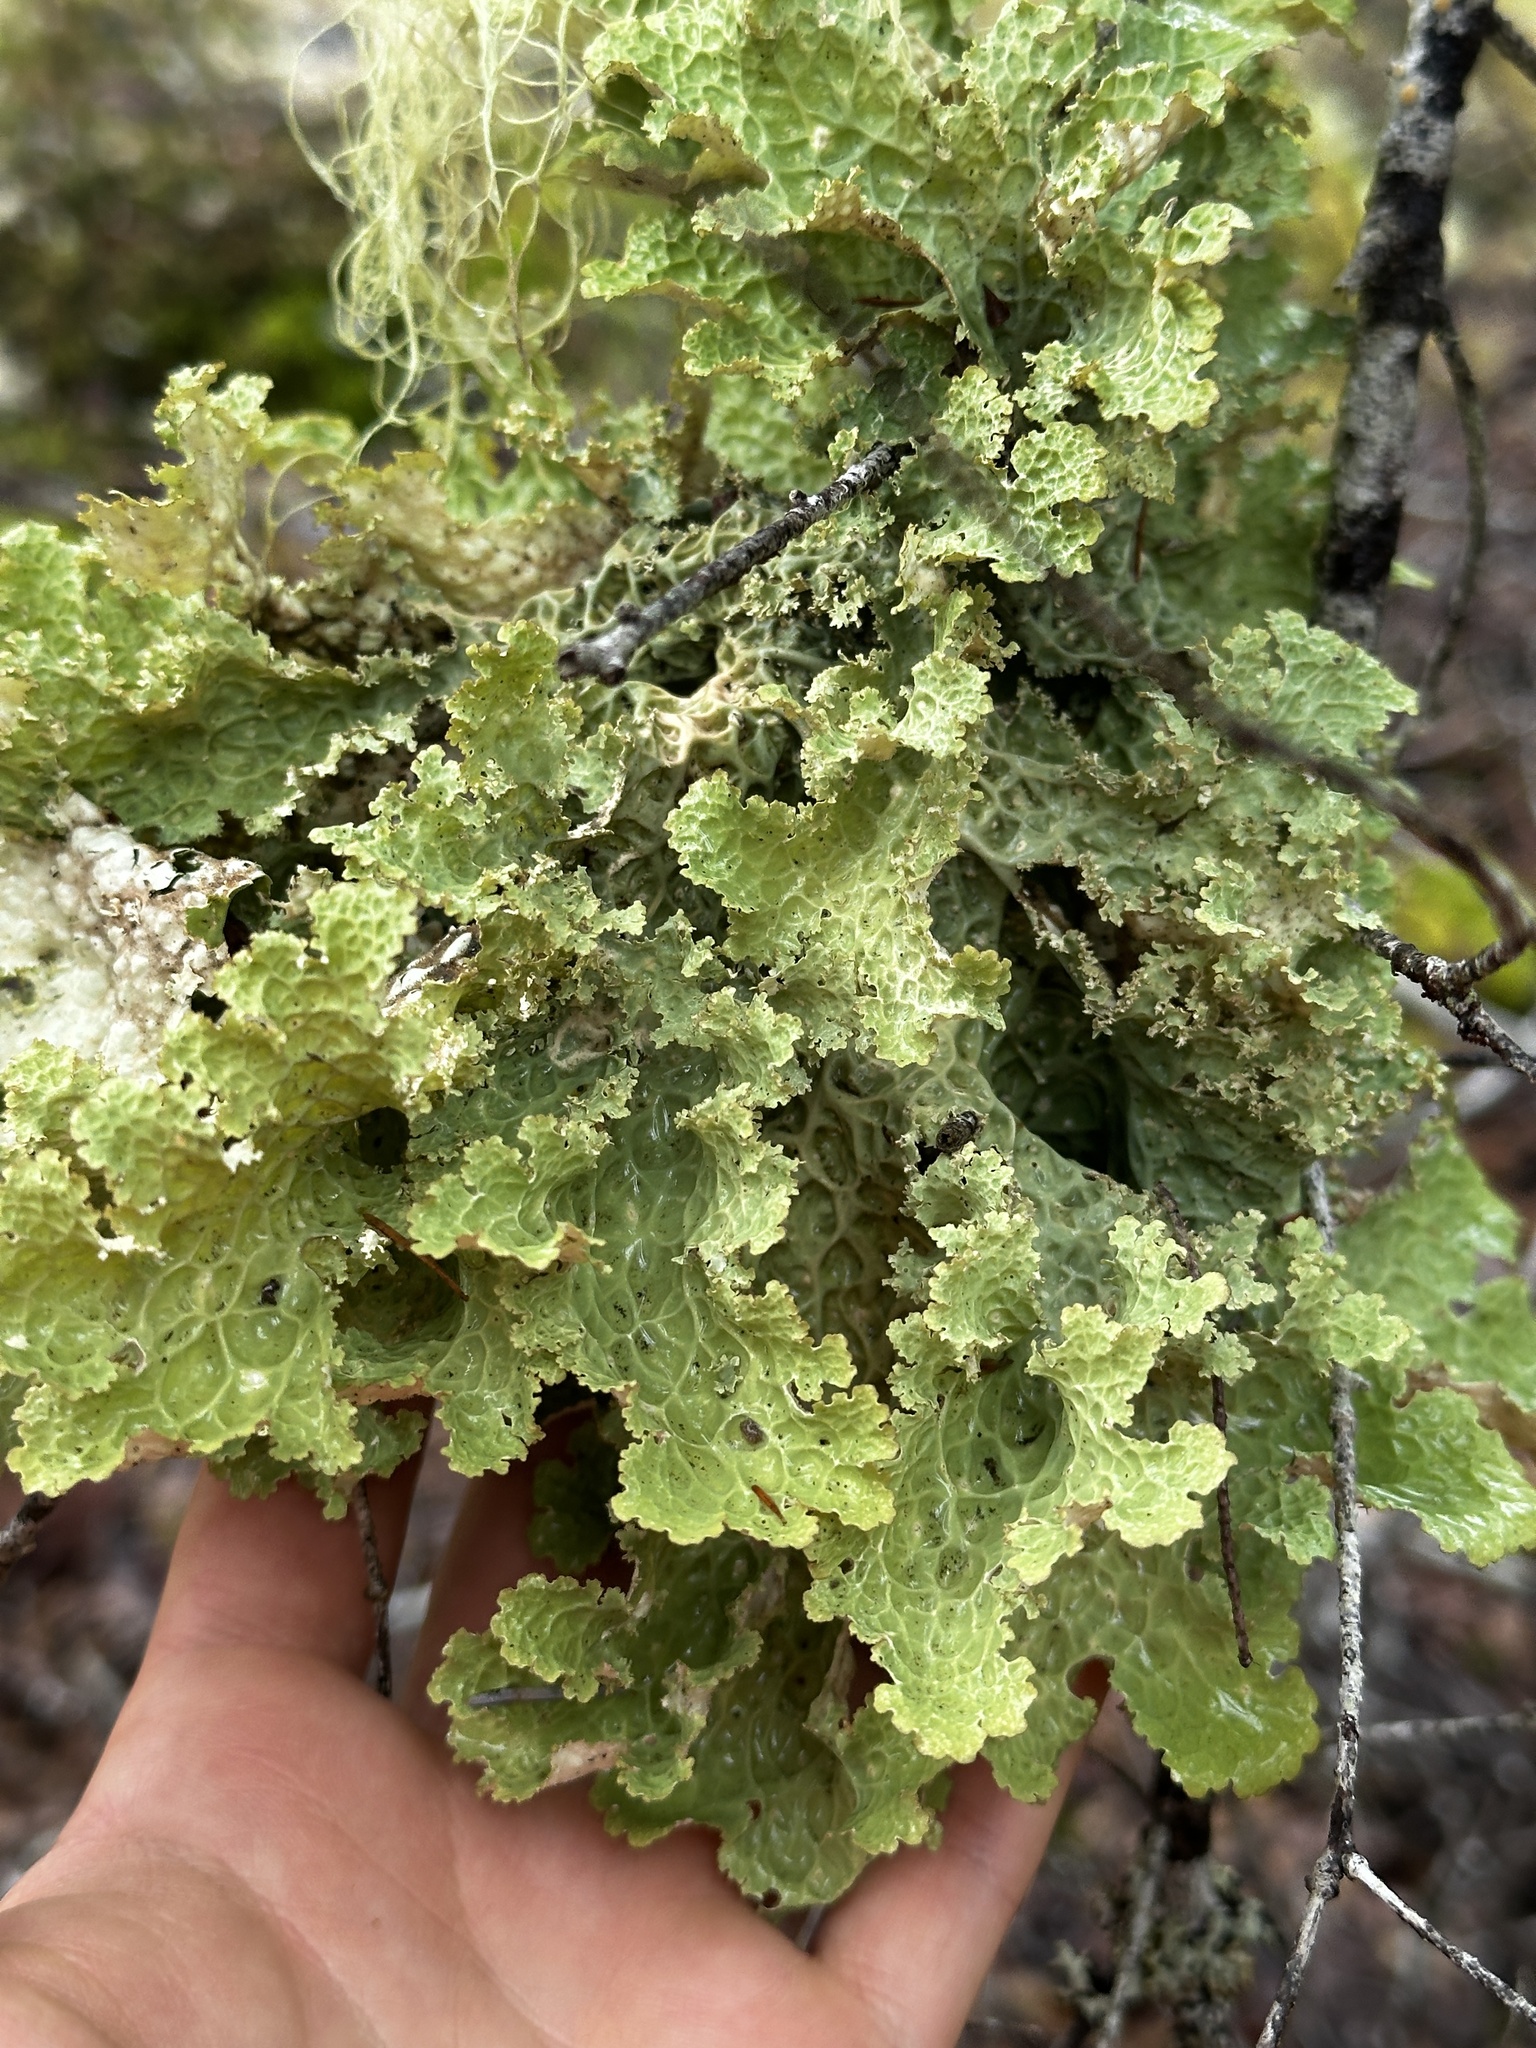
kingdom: Fungi
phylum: Ascomycota
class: Lecanoromycetes
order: Peltigerales
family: Lobariaceae
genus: Lobaria
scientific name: Lobaria oregana
